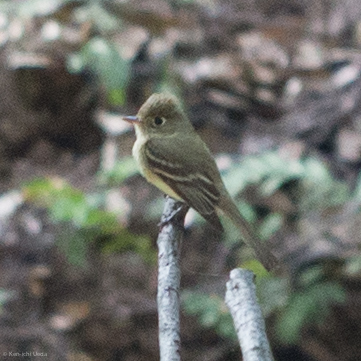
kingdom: Animalia
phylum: Chordata
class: Aves
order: Passeriformes
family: Tyrannidae
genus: Empidonax
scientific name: Empidonax difficilis
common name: Pacific-slope flycatcher
